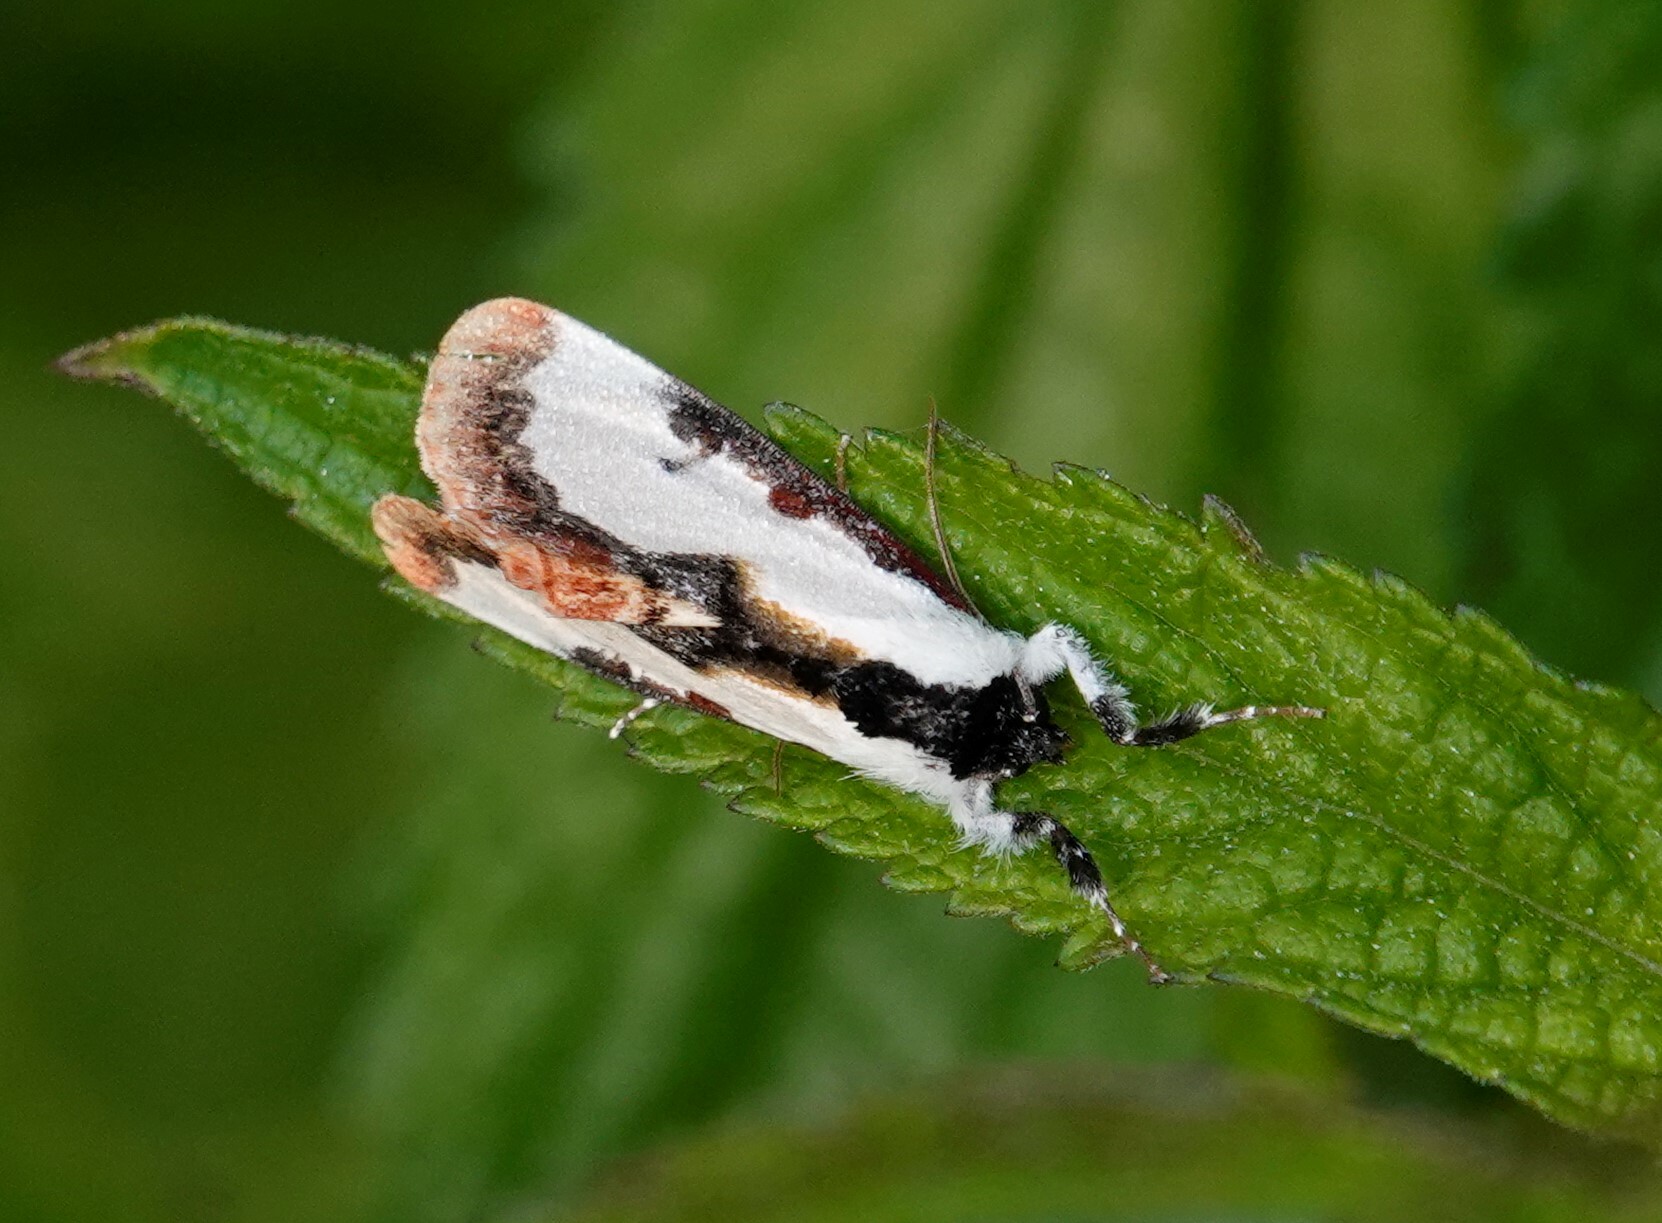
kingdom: Animalia
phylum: Arthropoda
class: Insecta
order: Lepidoptera
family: Noctuidae
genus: Eudryas
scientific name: Eudryas unio
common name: Pearly wood-nymph
